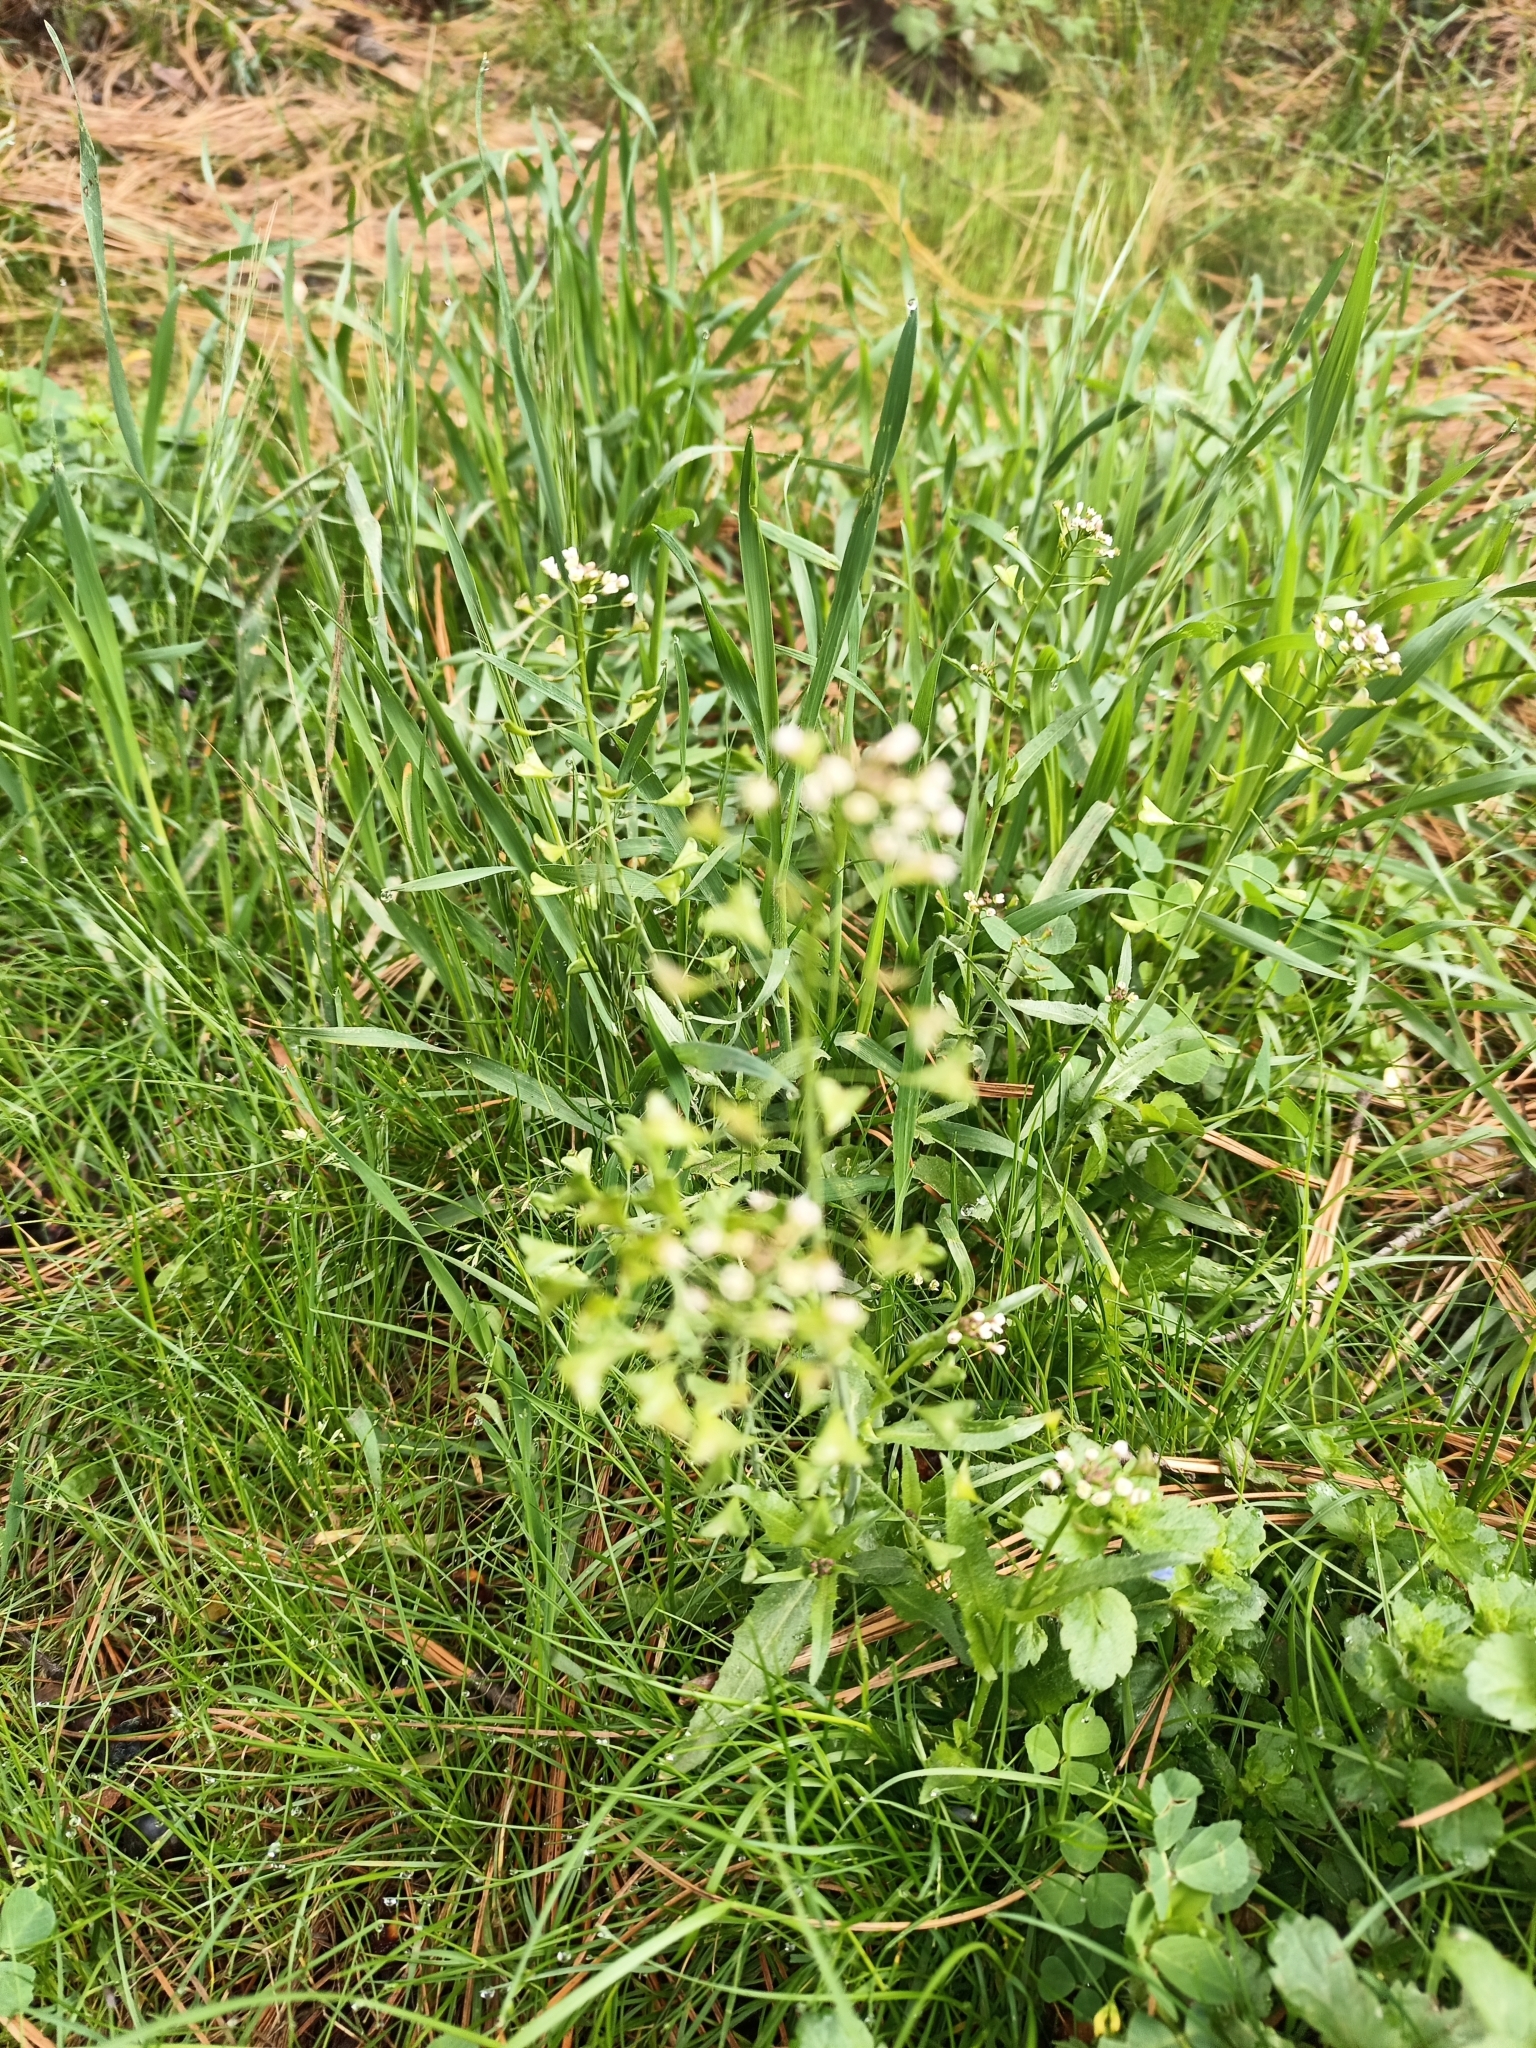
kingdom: Plantae
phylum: Tracheophyta
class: Magnoliopsida
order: Brassicales
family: Brassicaceae
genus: Capsella
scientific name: Capsella bursa-pastoris
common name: Shepherd's purse
